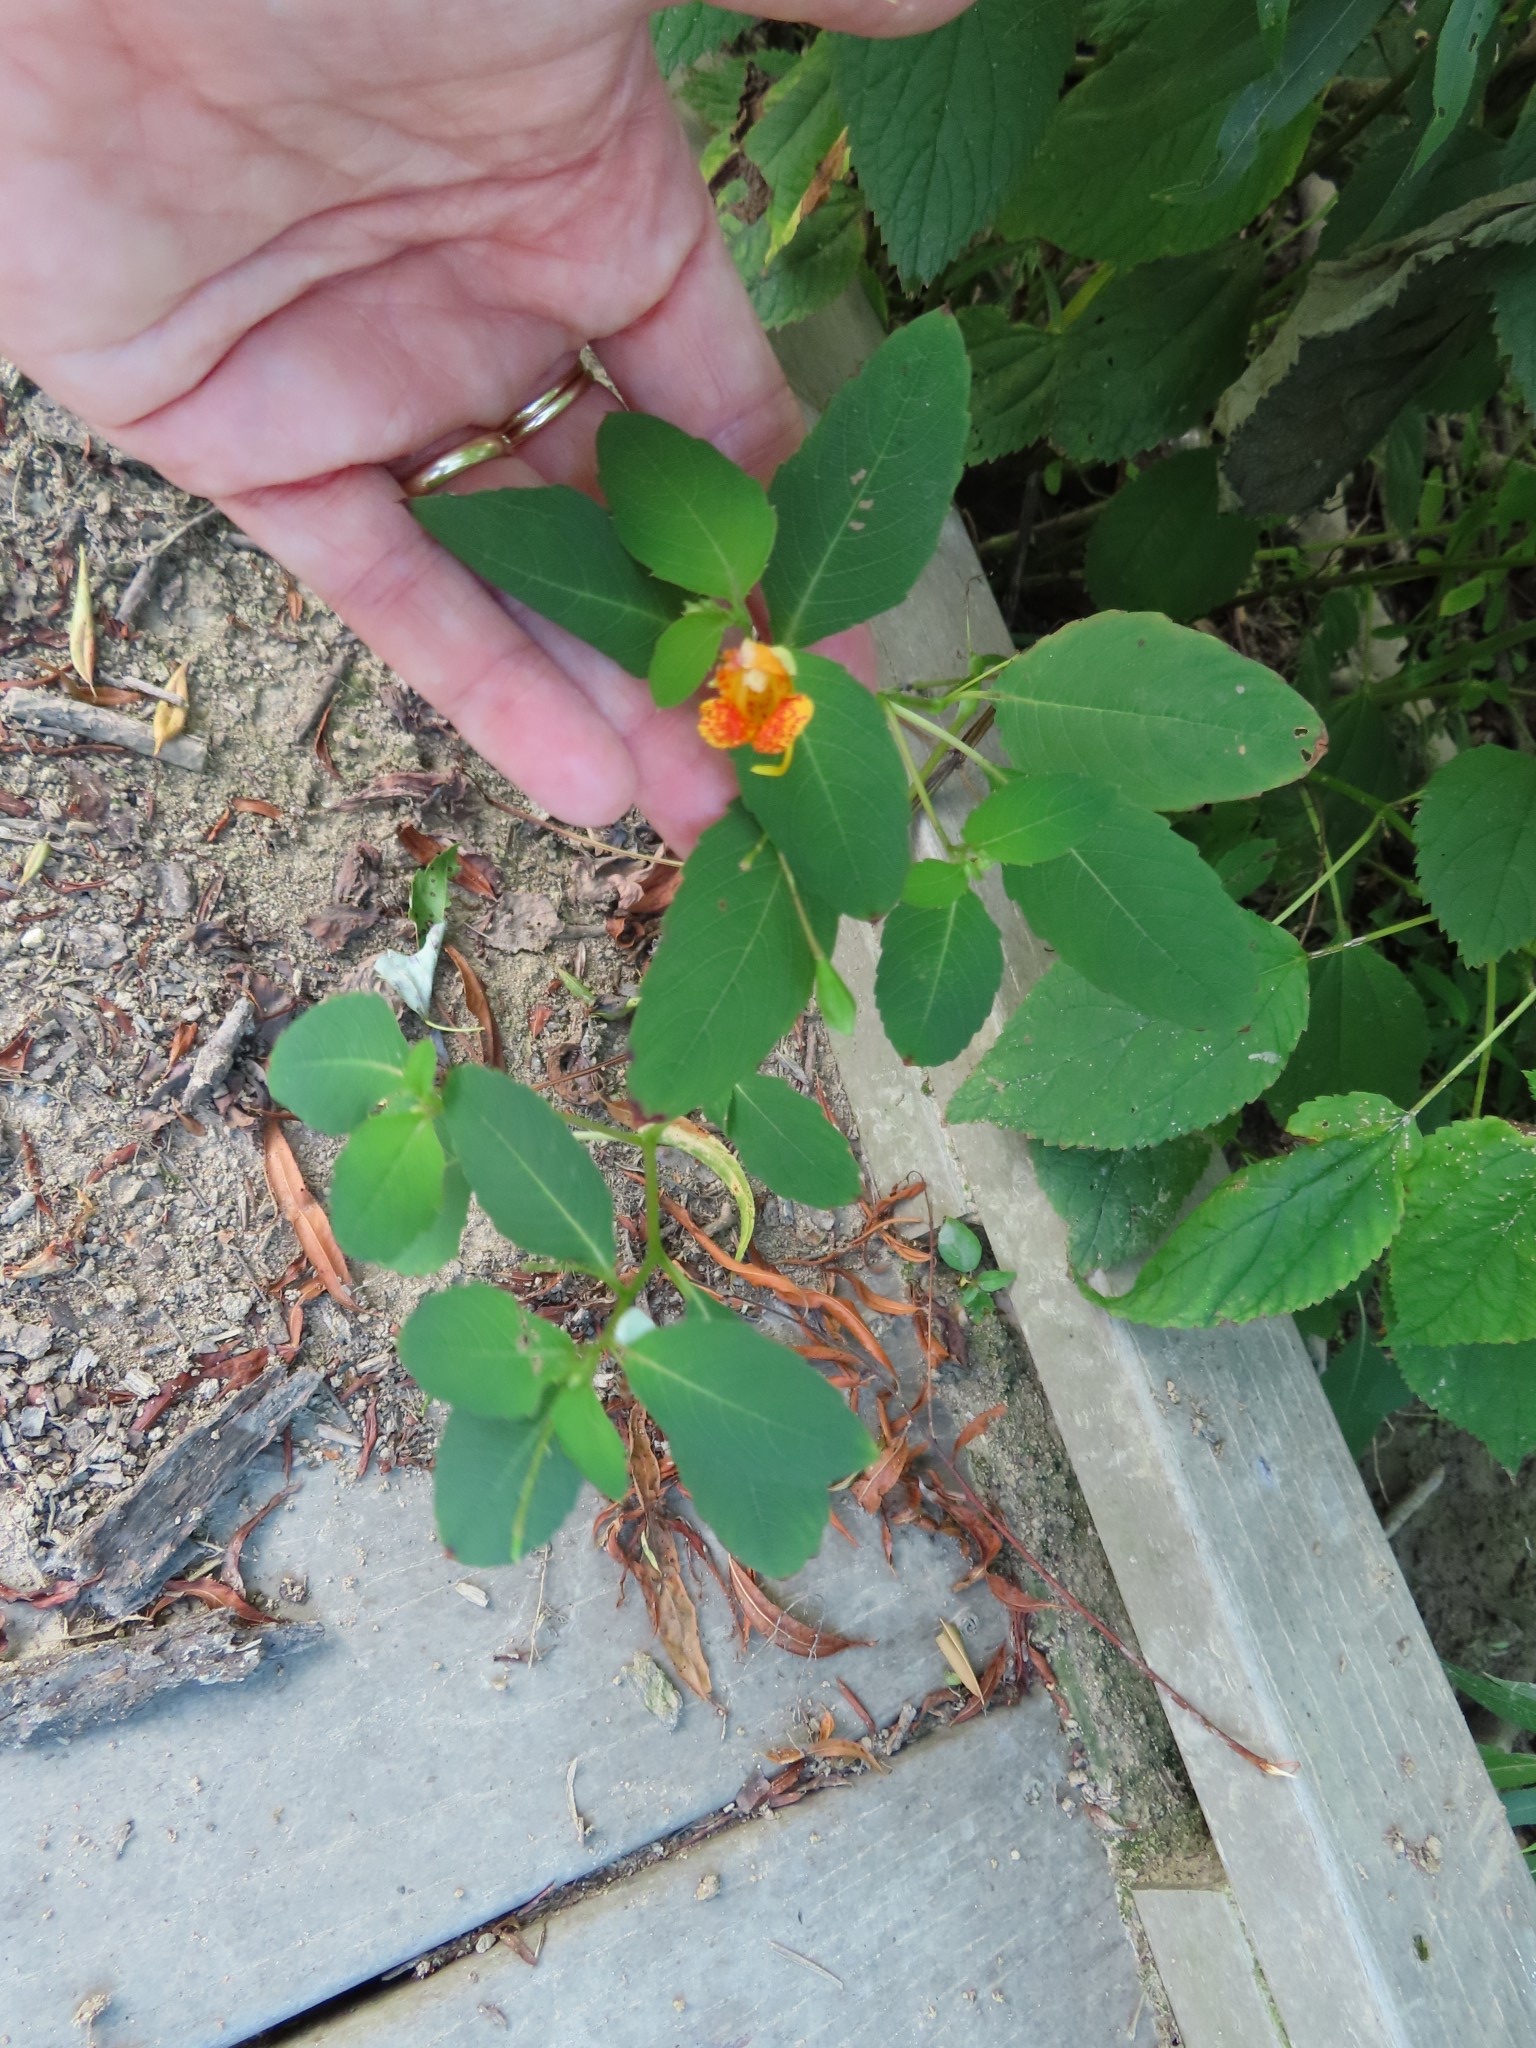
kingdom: Plantae
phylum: Tracheophyta
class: Magnoliopsida
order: Ericales
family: Balsaminaceae
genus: Impatiens
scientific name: Impatiens capensis
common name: Orange balsam
